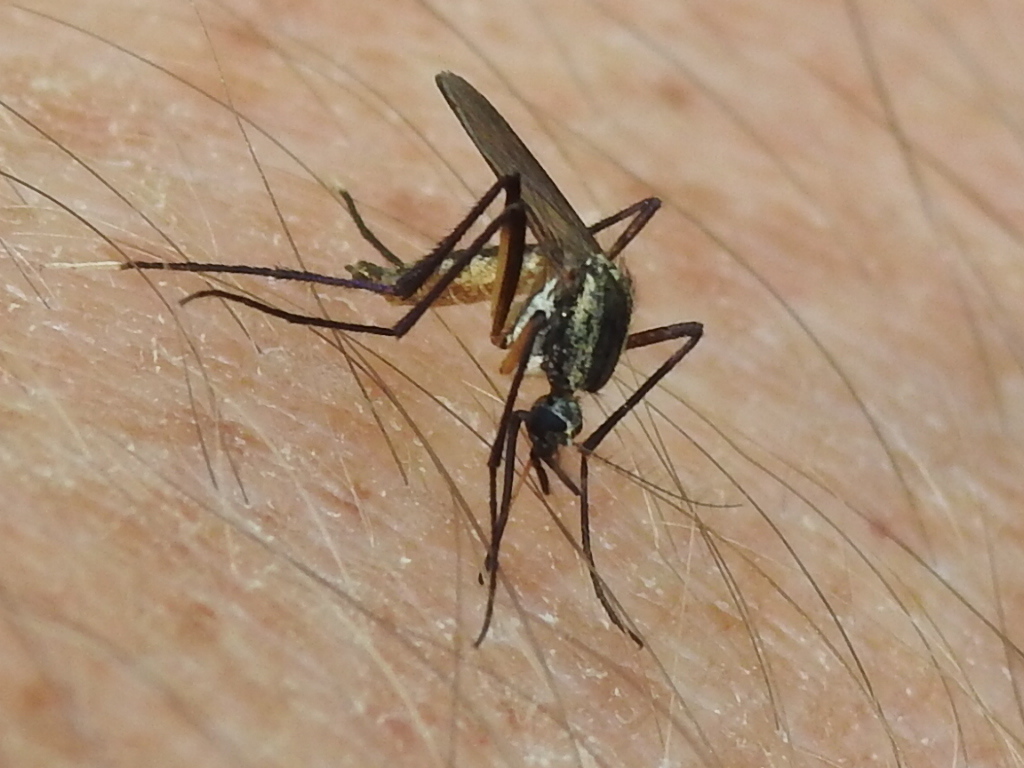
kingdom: Animalia
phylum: Arthropoda
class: Insecta
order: Diptera
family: Culicidae
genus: Psorophora
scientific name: Psorophora longipalpus
